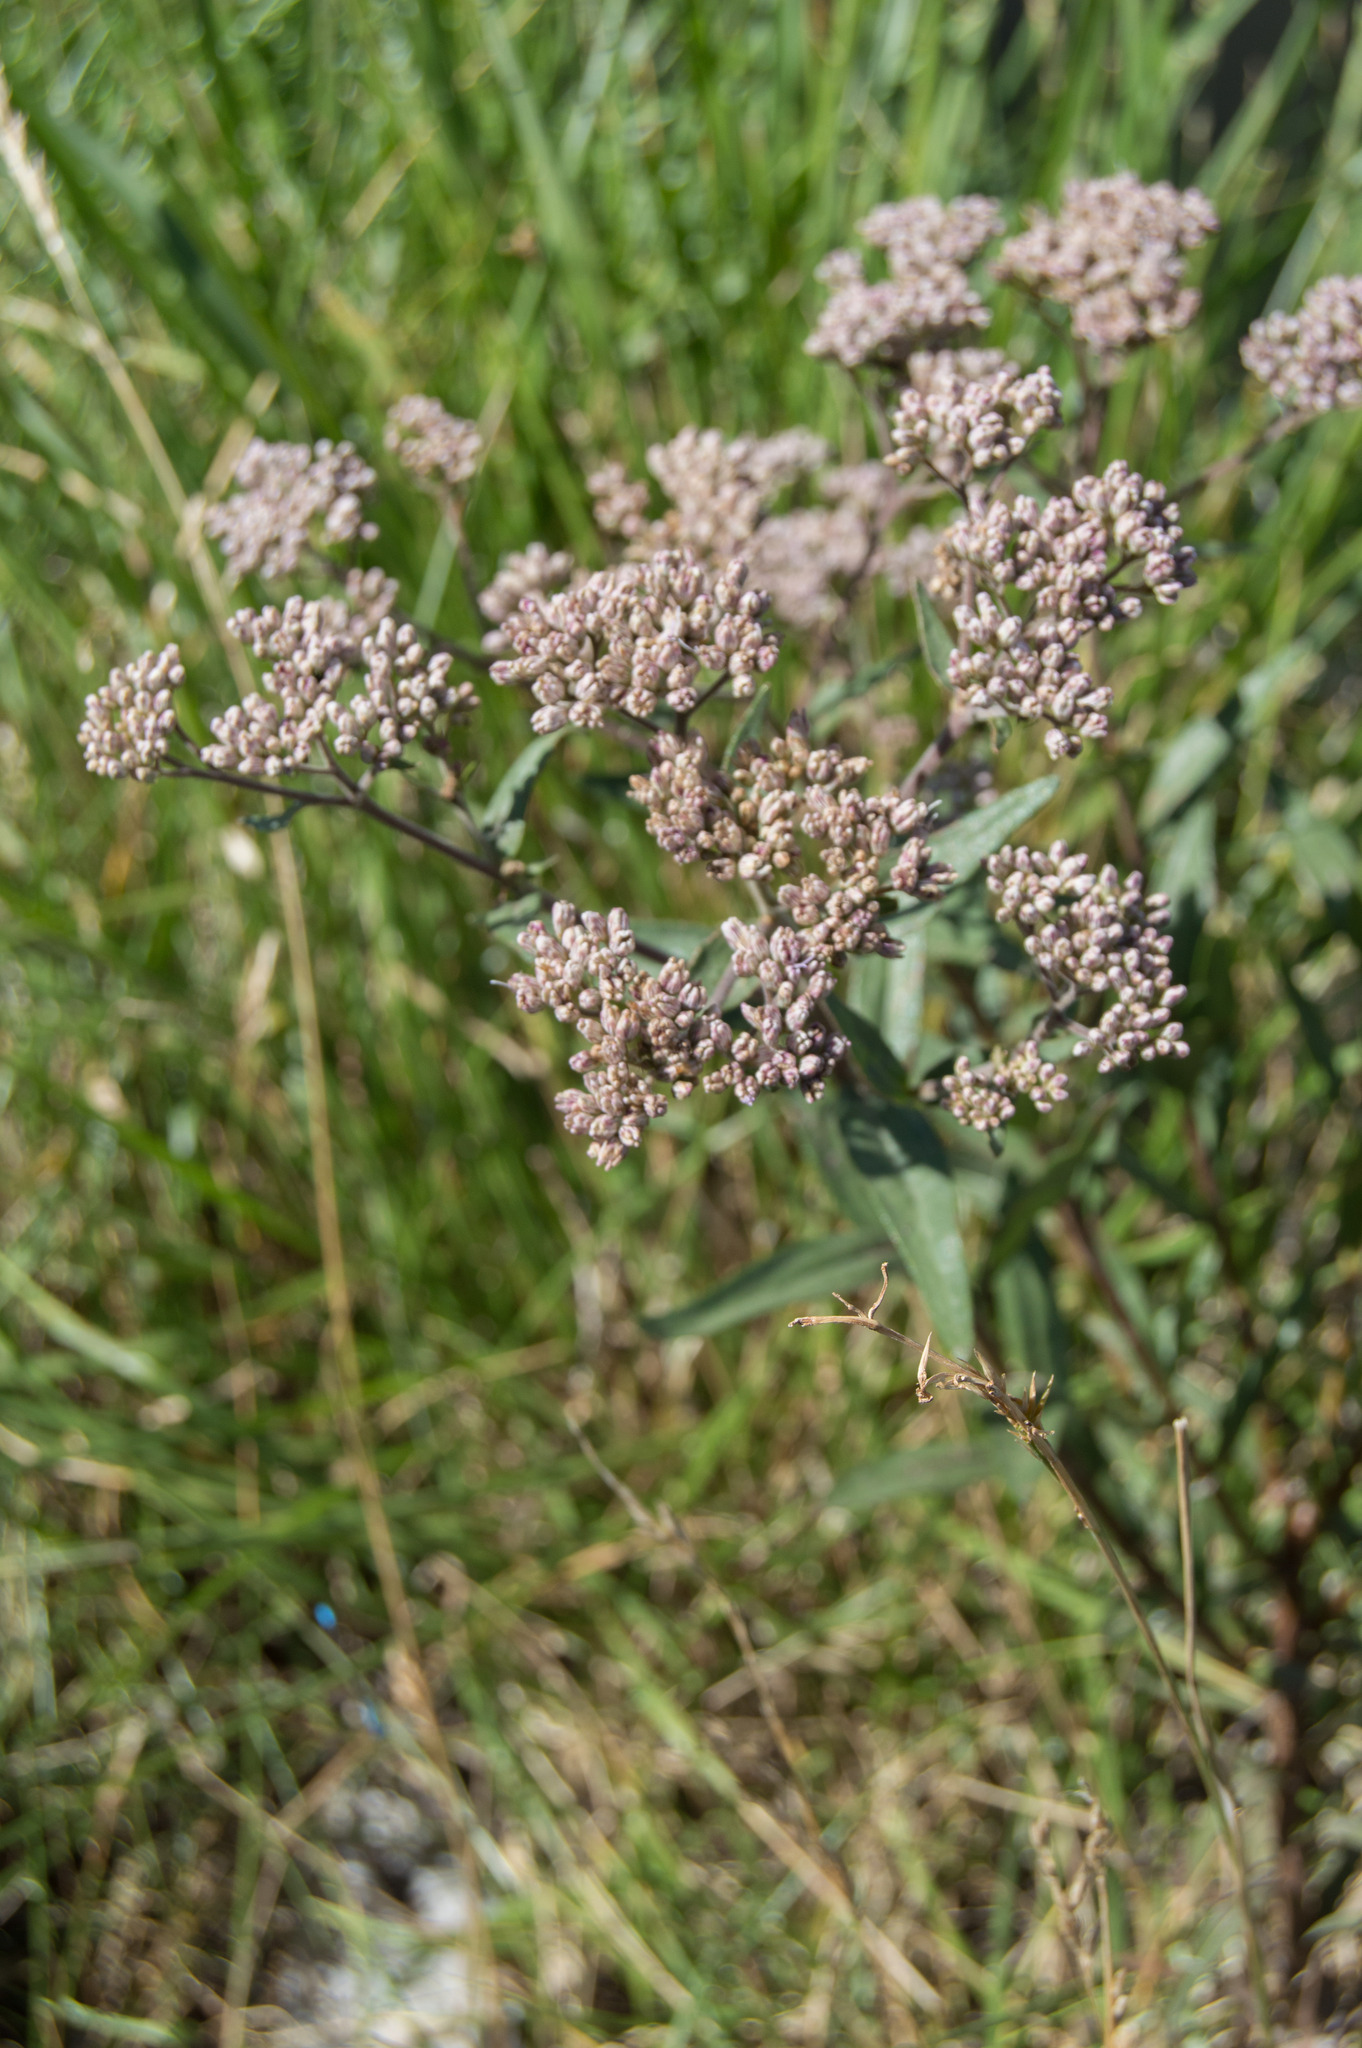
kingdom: Plantae
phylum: Tracheophyta
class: Magnoliopsida
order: Asterales
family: Asteraceae
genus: Campovassouria
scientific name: Campovassouria cruciata
